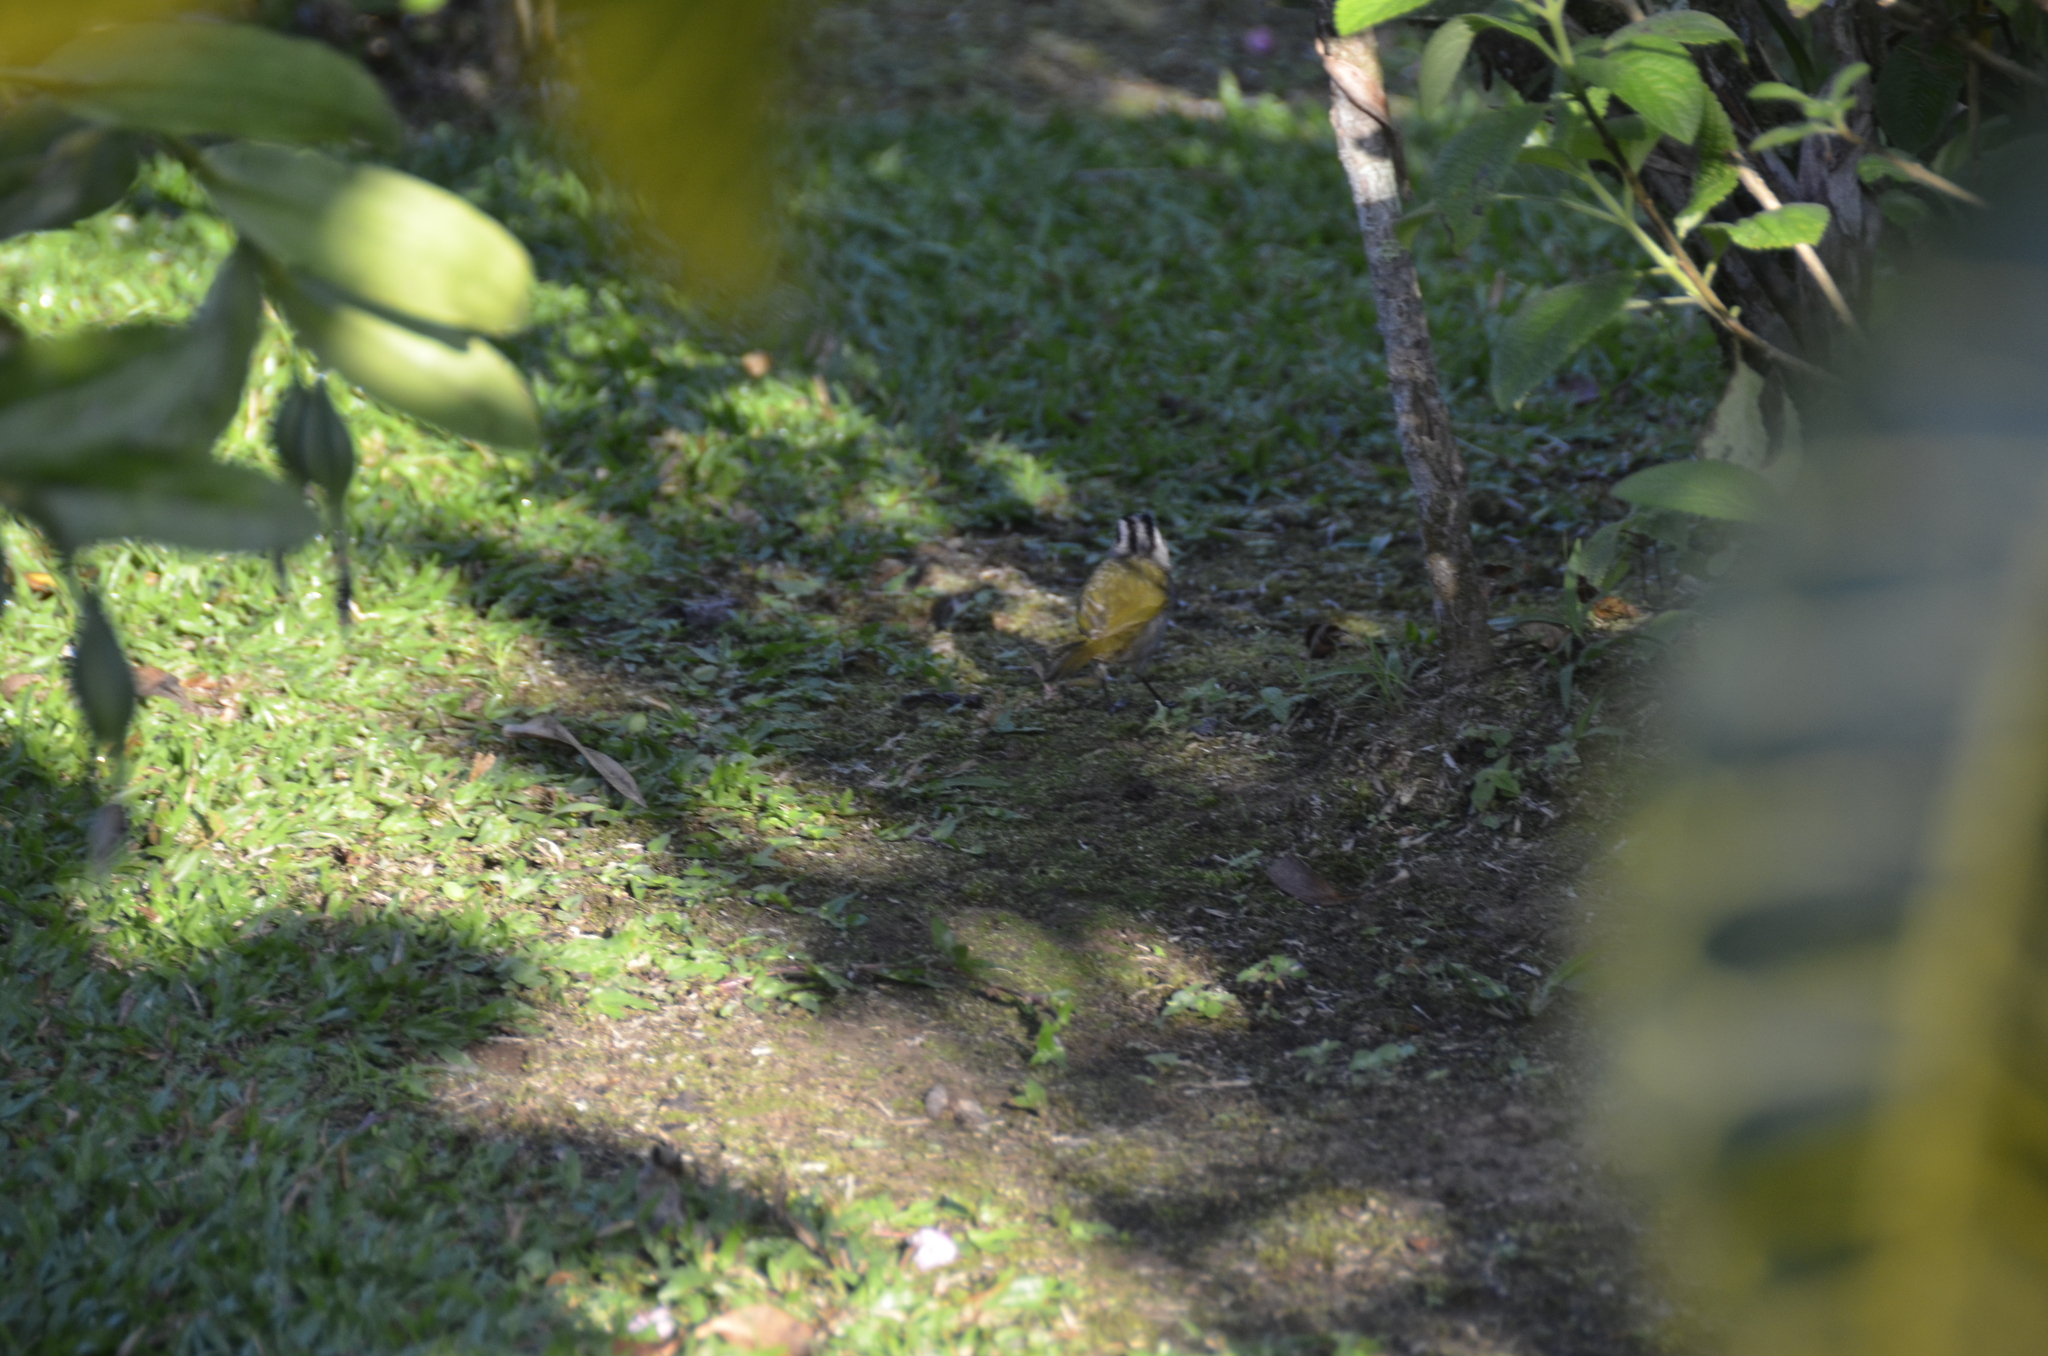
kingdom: Animalia
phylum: Chordata
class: Aves
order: Passeriformes
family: Passerellidae
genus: Arremonops
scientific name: Arremonops conirostris
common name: Black-striped sparrow
